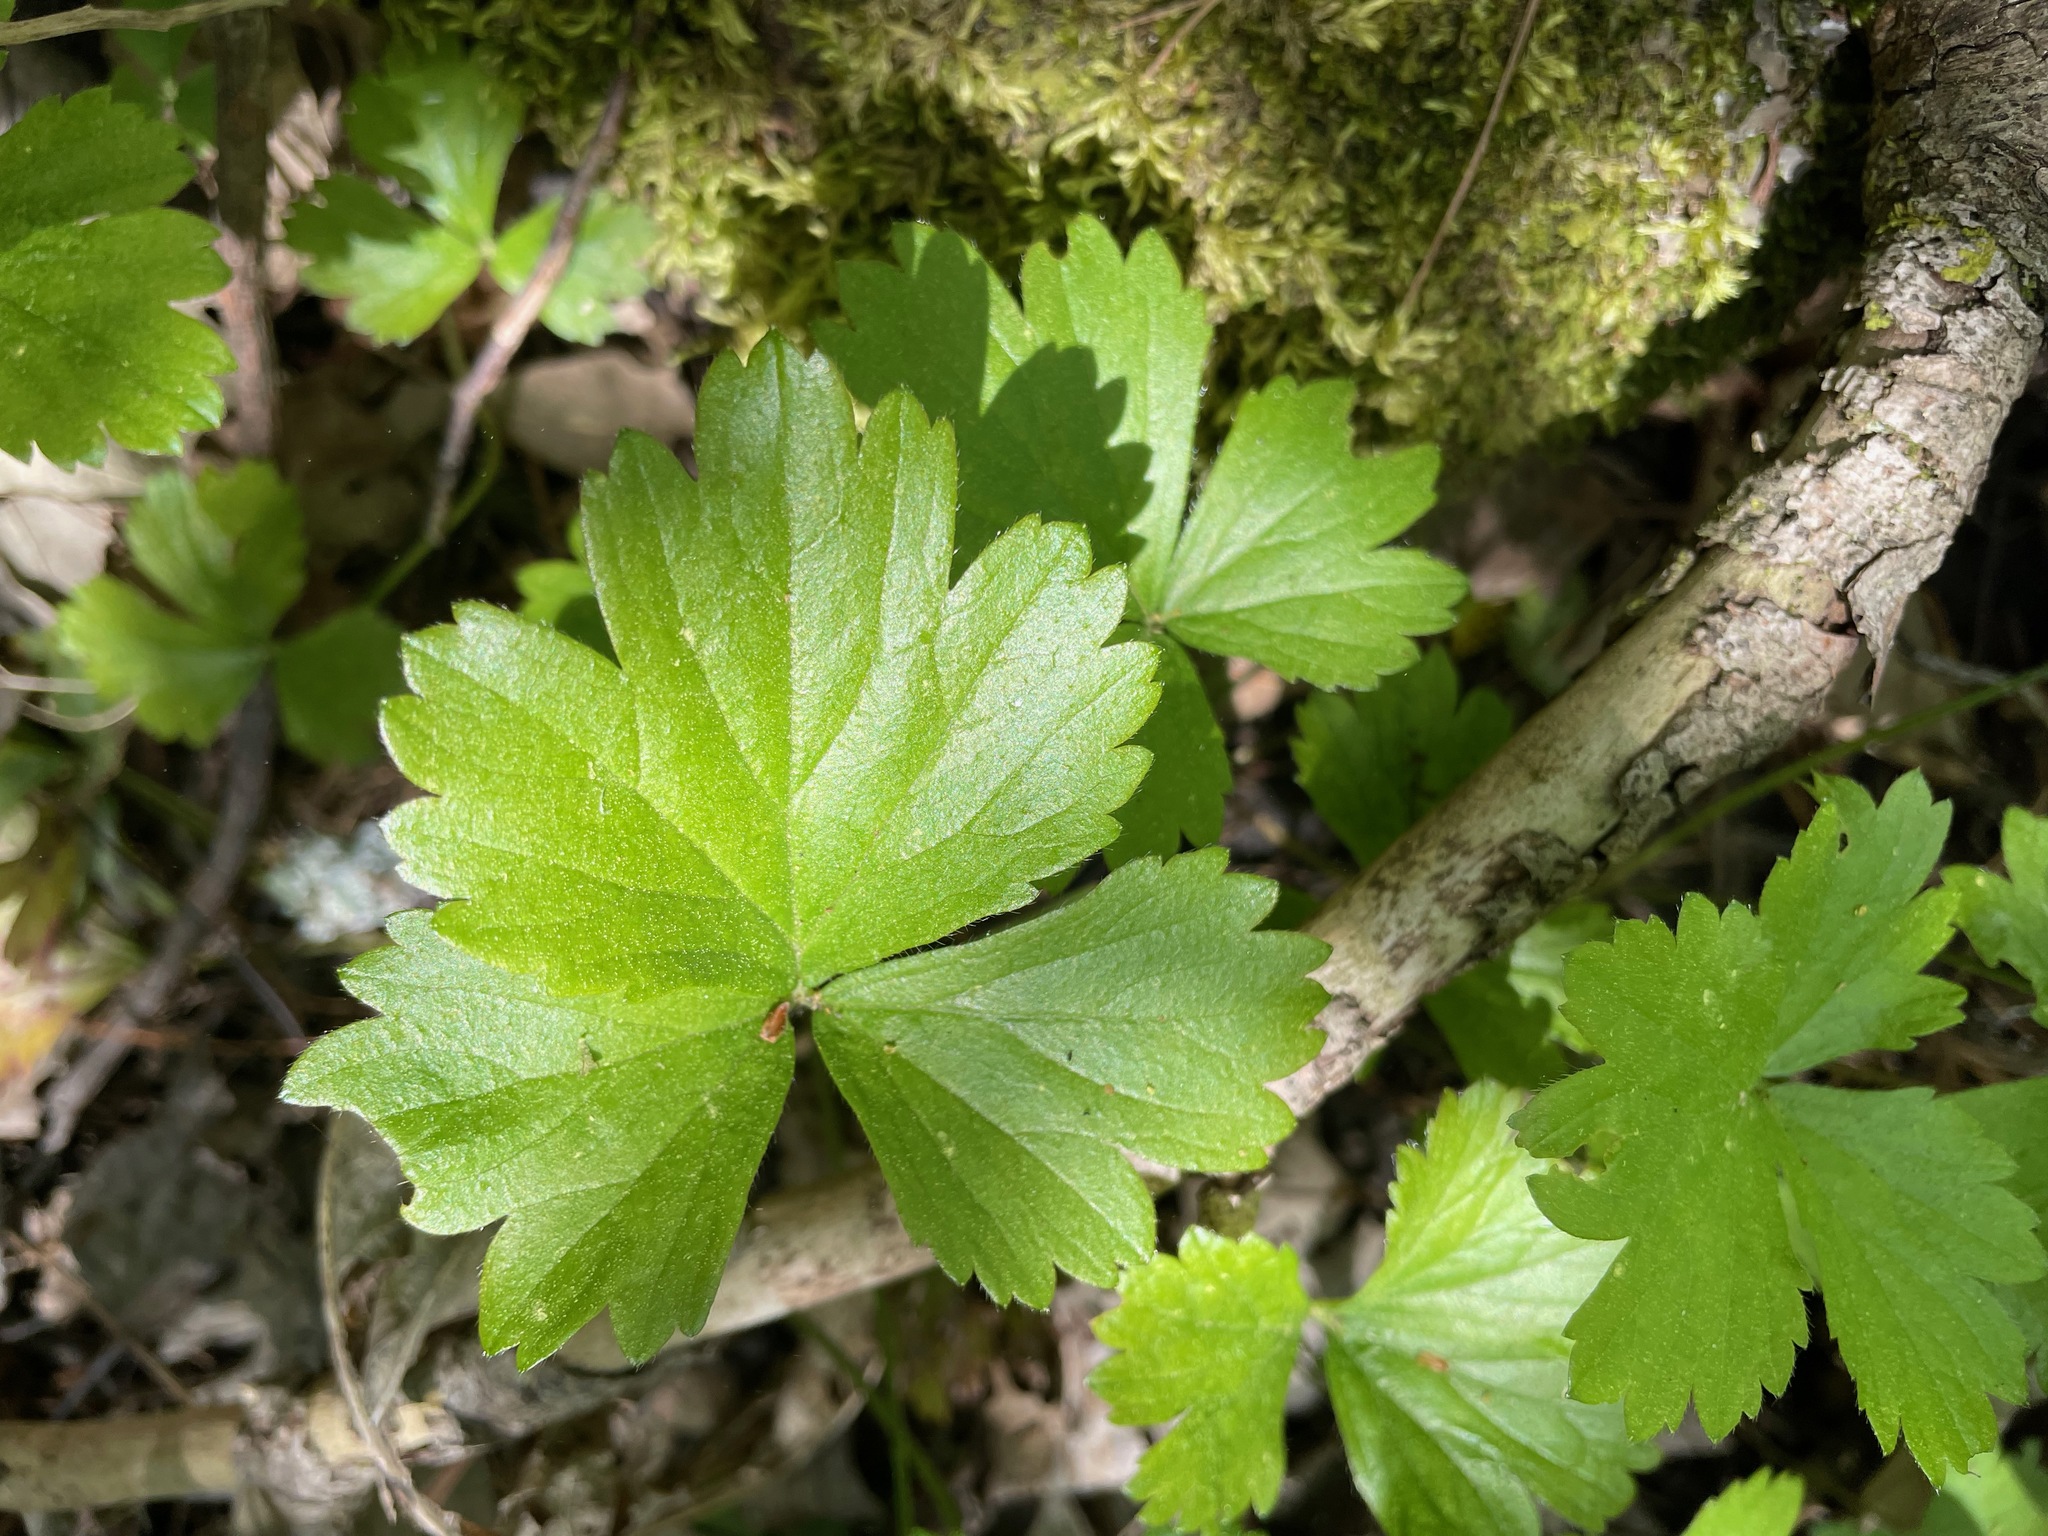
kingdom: Plantae
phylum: Tracheophyta
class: Magnoliopsida
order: Rosales
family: Rosaceae
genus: Geum
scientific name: Geum fragarioides
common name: Appalachian barren strawberry
